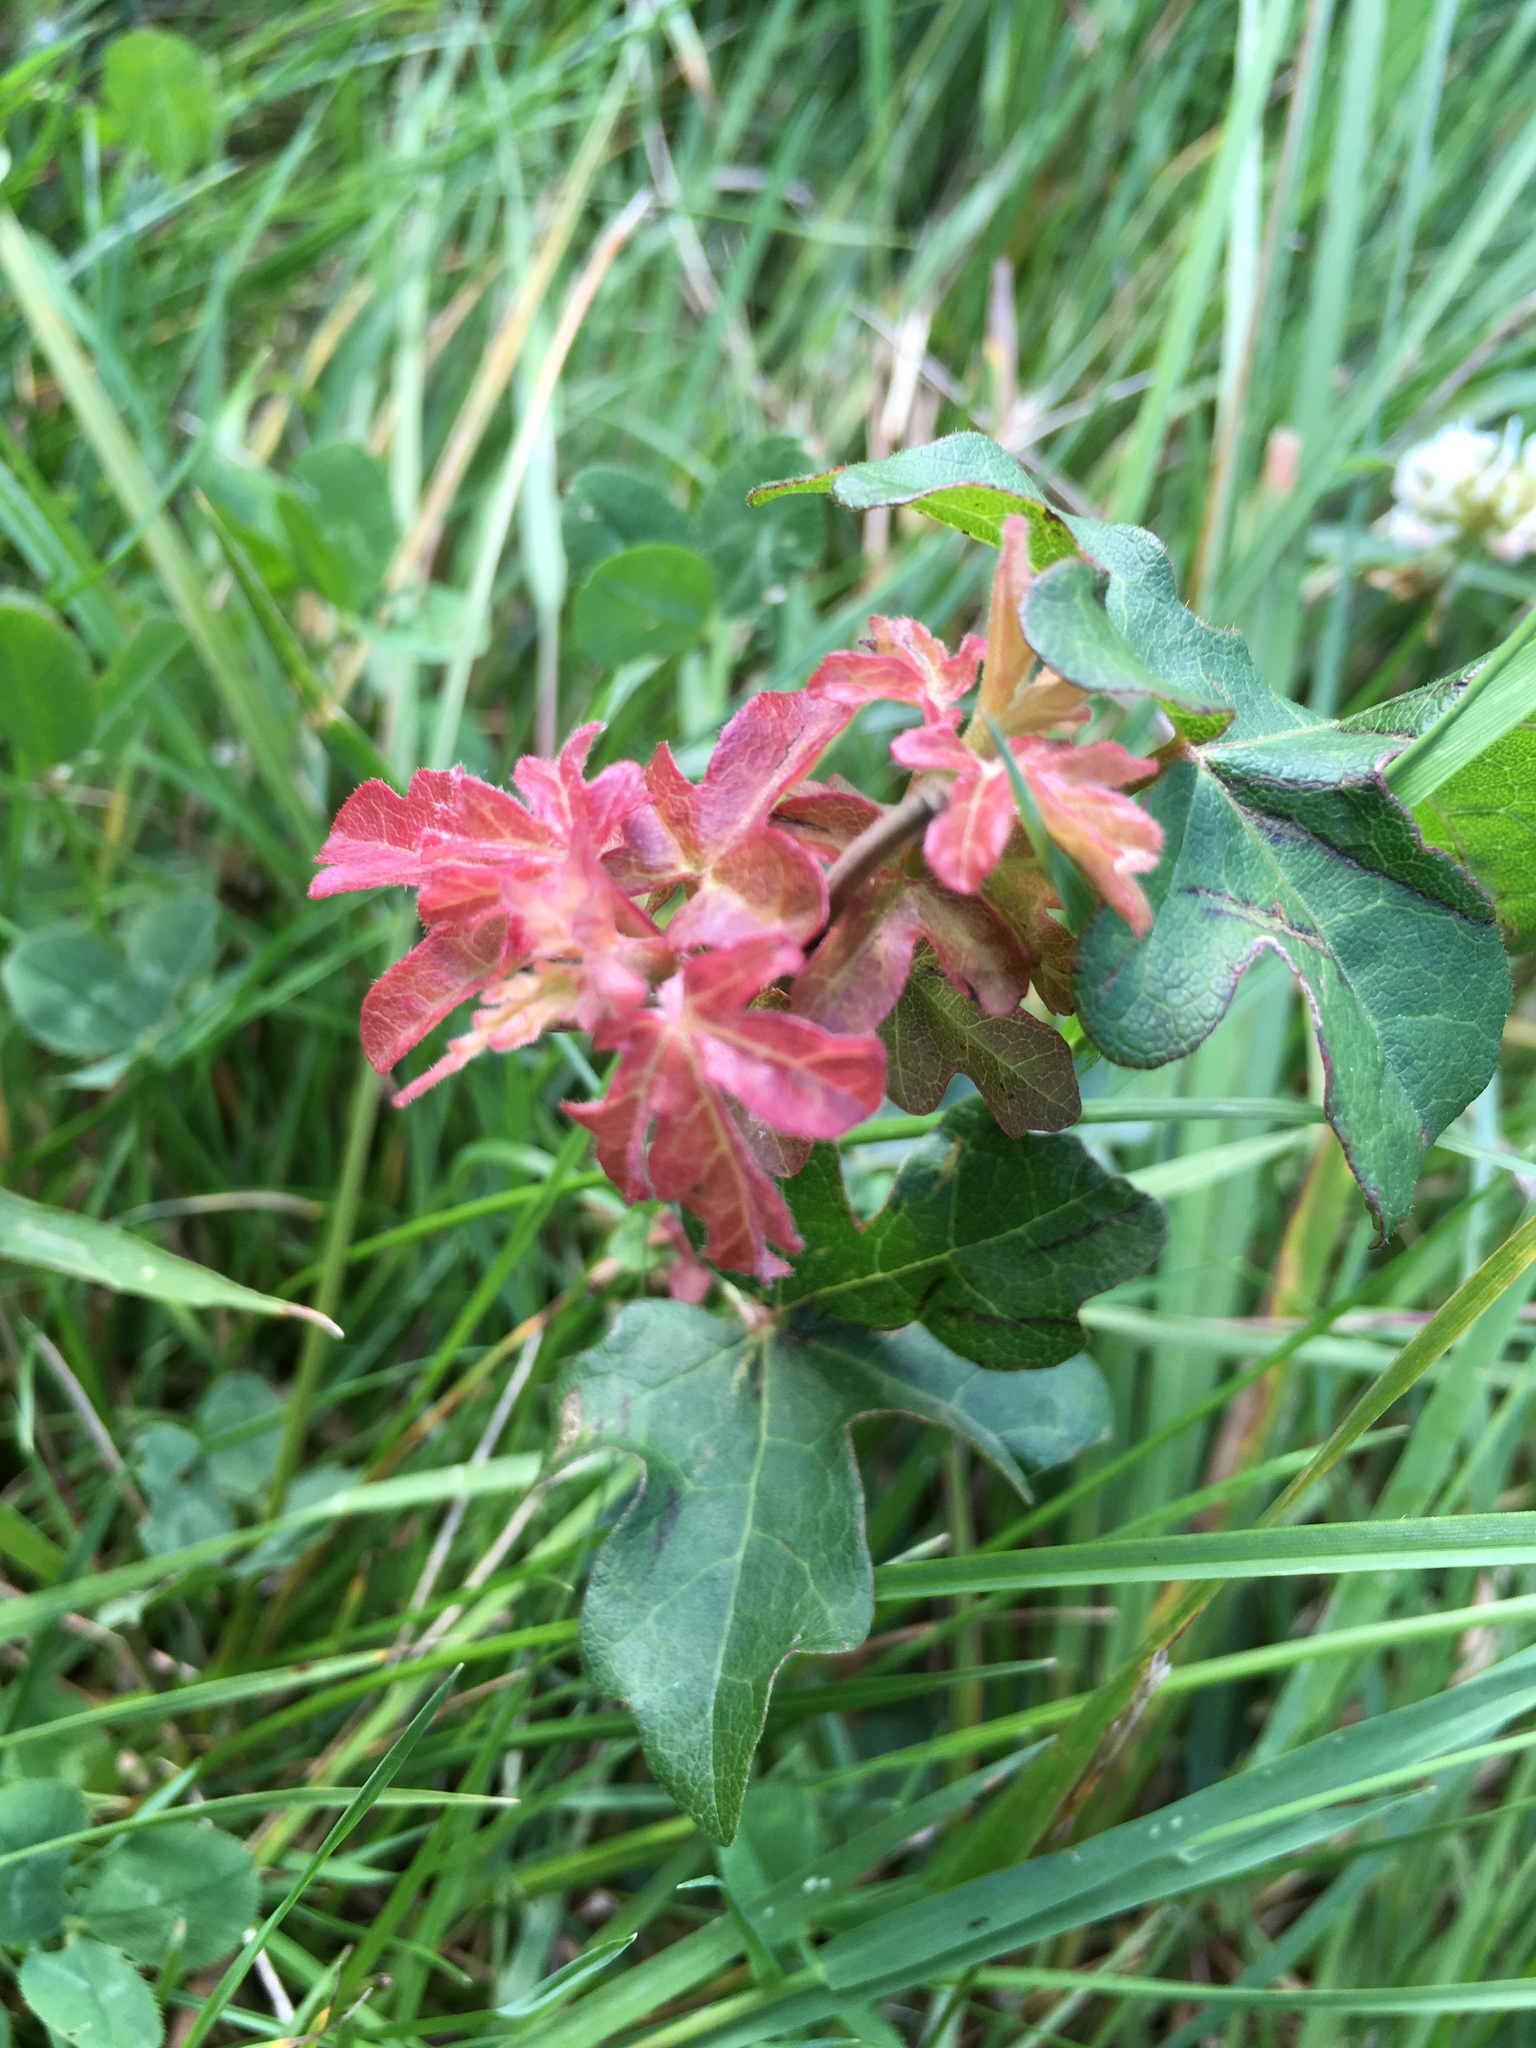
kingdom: Plantae
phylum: Tracheophyta
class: Magnoliopsida
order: Sapindales
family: Sapindaceae
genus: Acer
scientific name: Acer campestre
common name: Field maple
